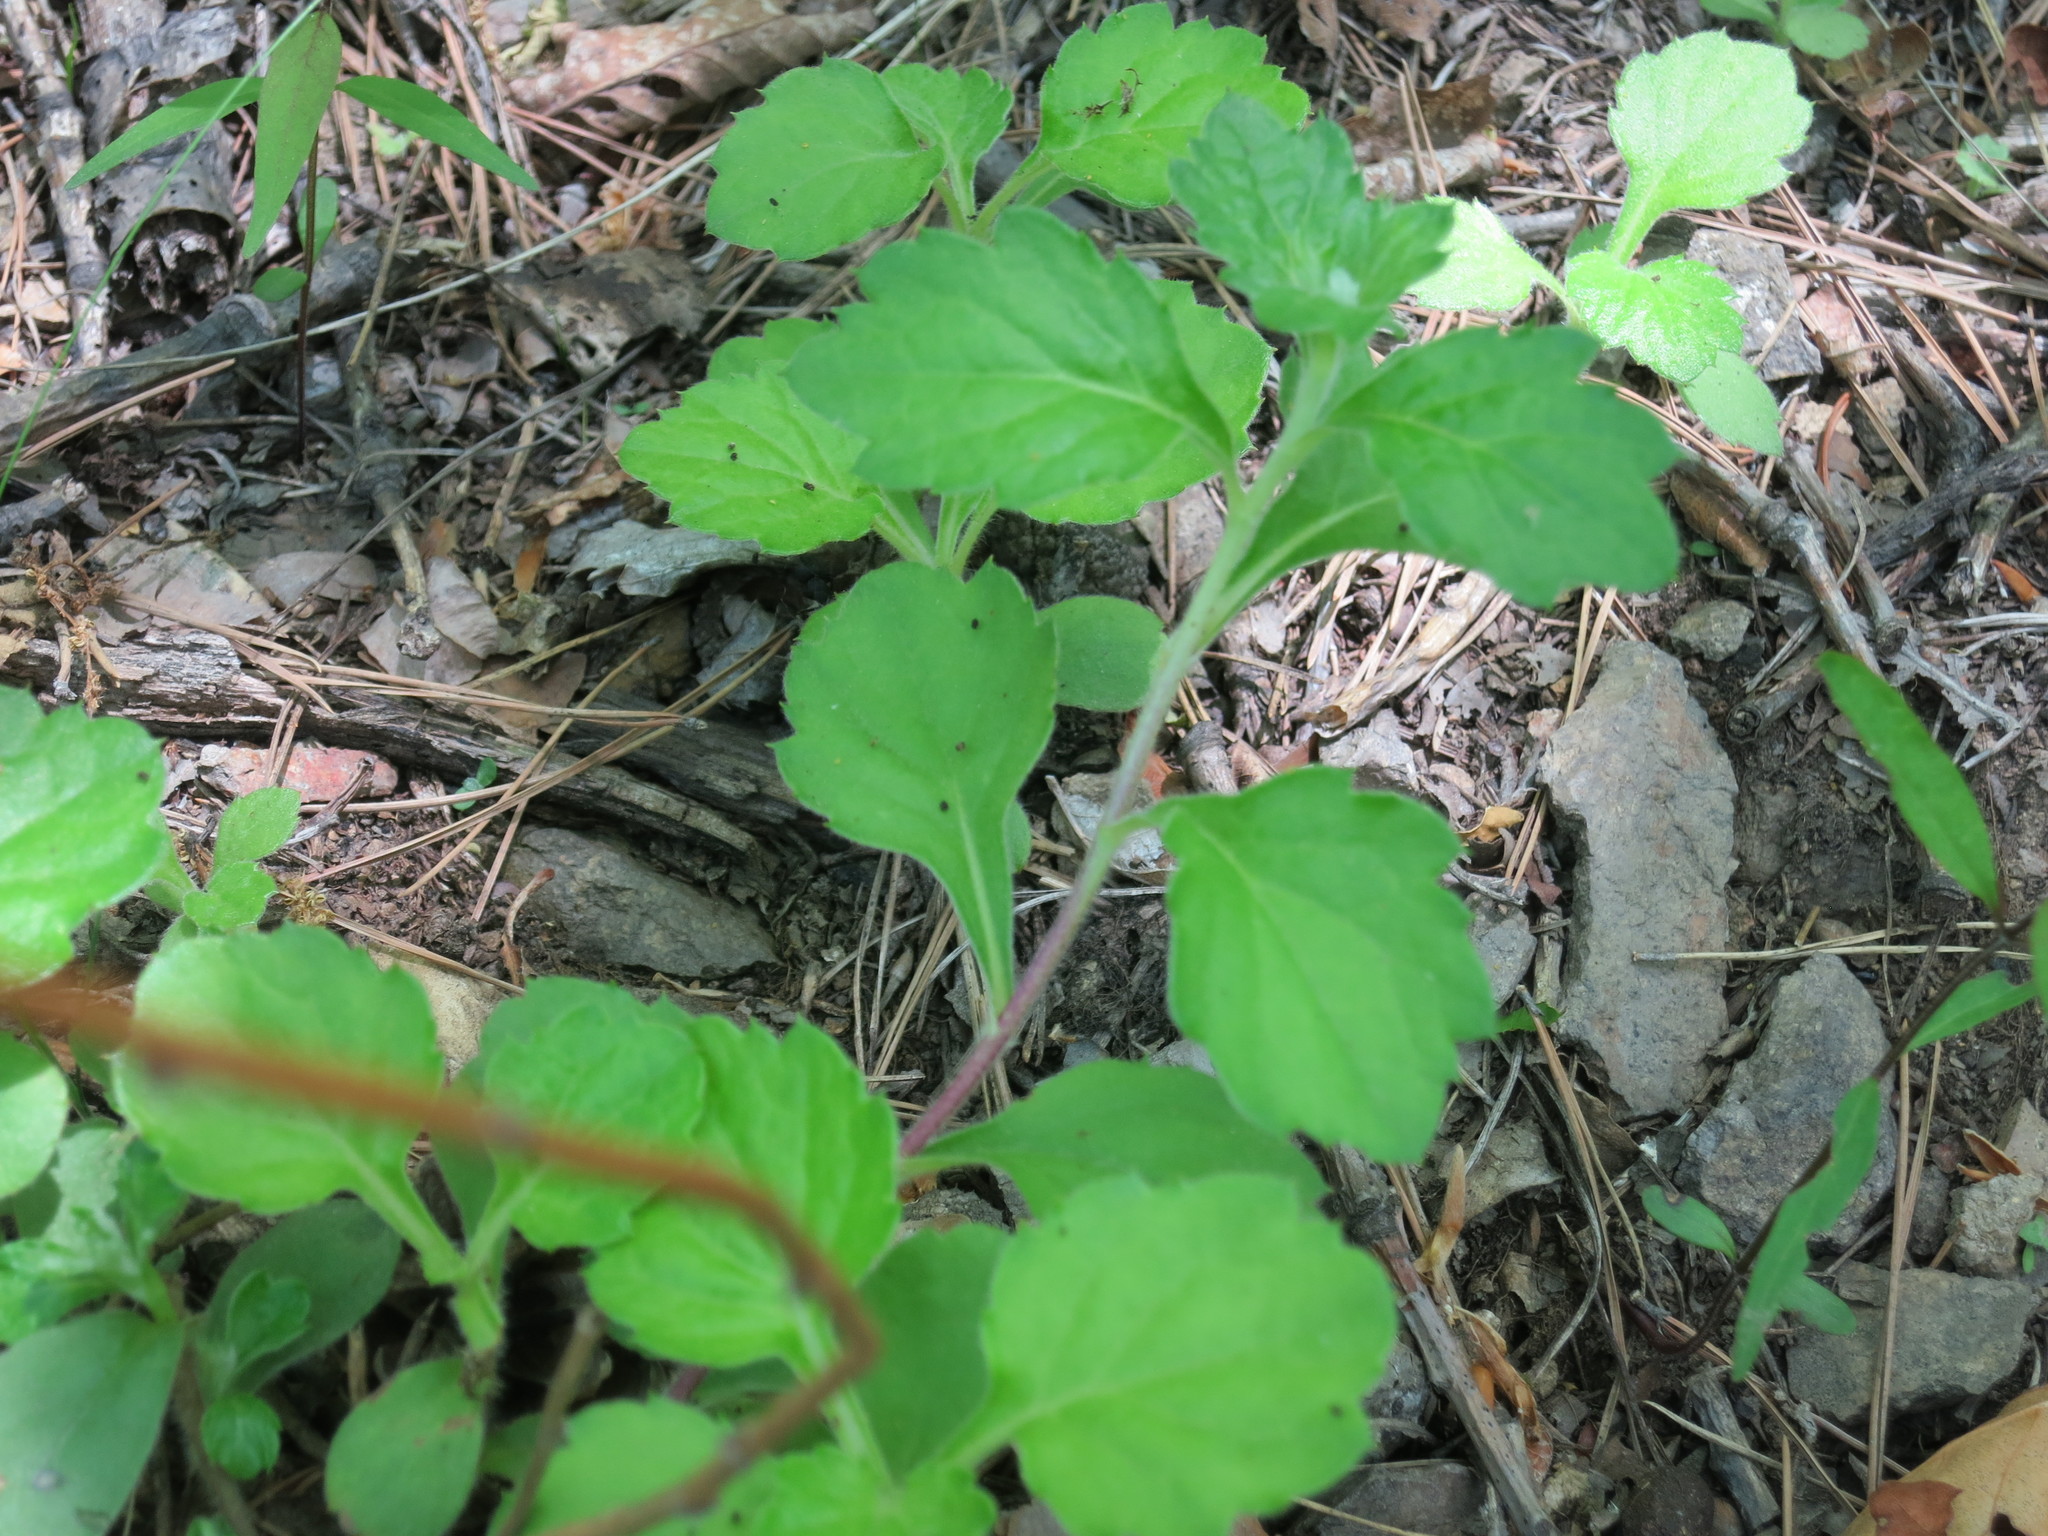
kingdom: Plantae
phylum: Tracheophyta
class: Magnoliopsida
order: Asterales
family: Asteraceae
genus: Artemisia
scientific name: Artemisia keiskeana
